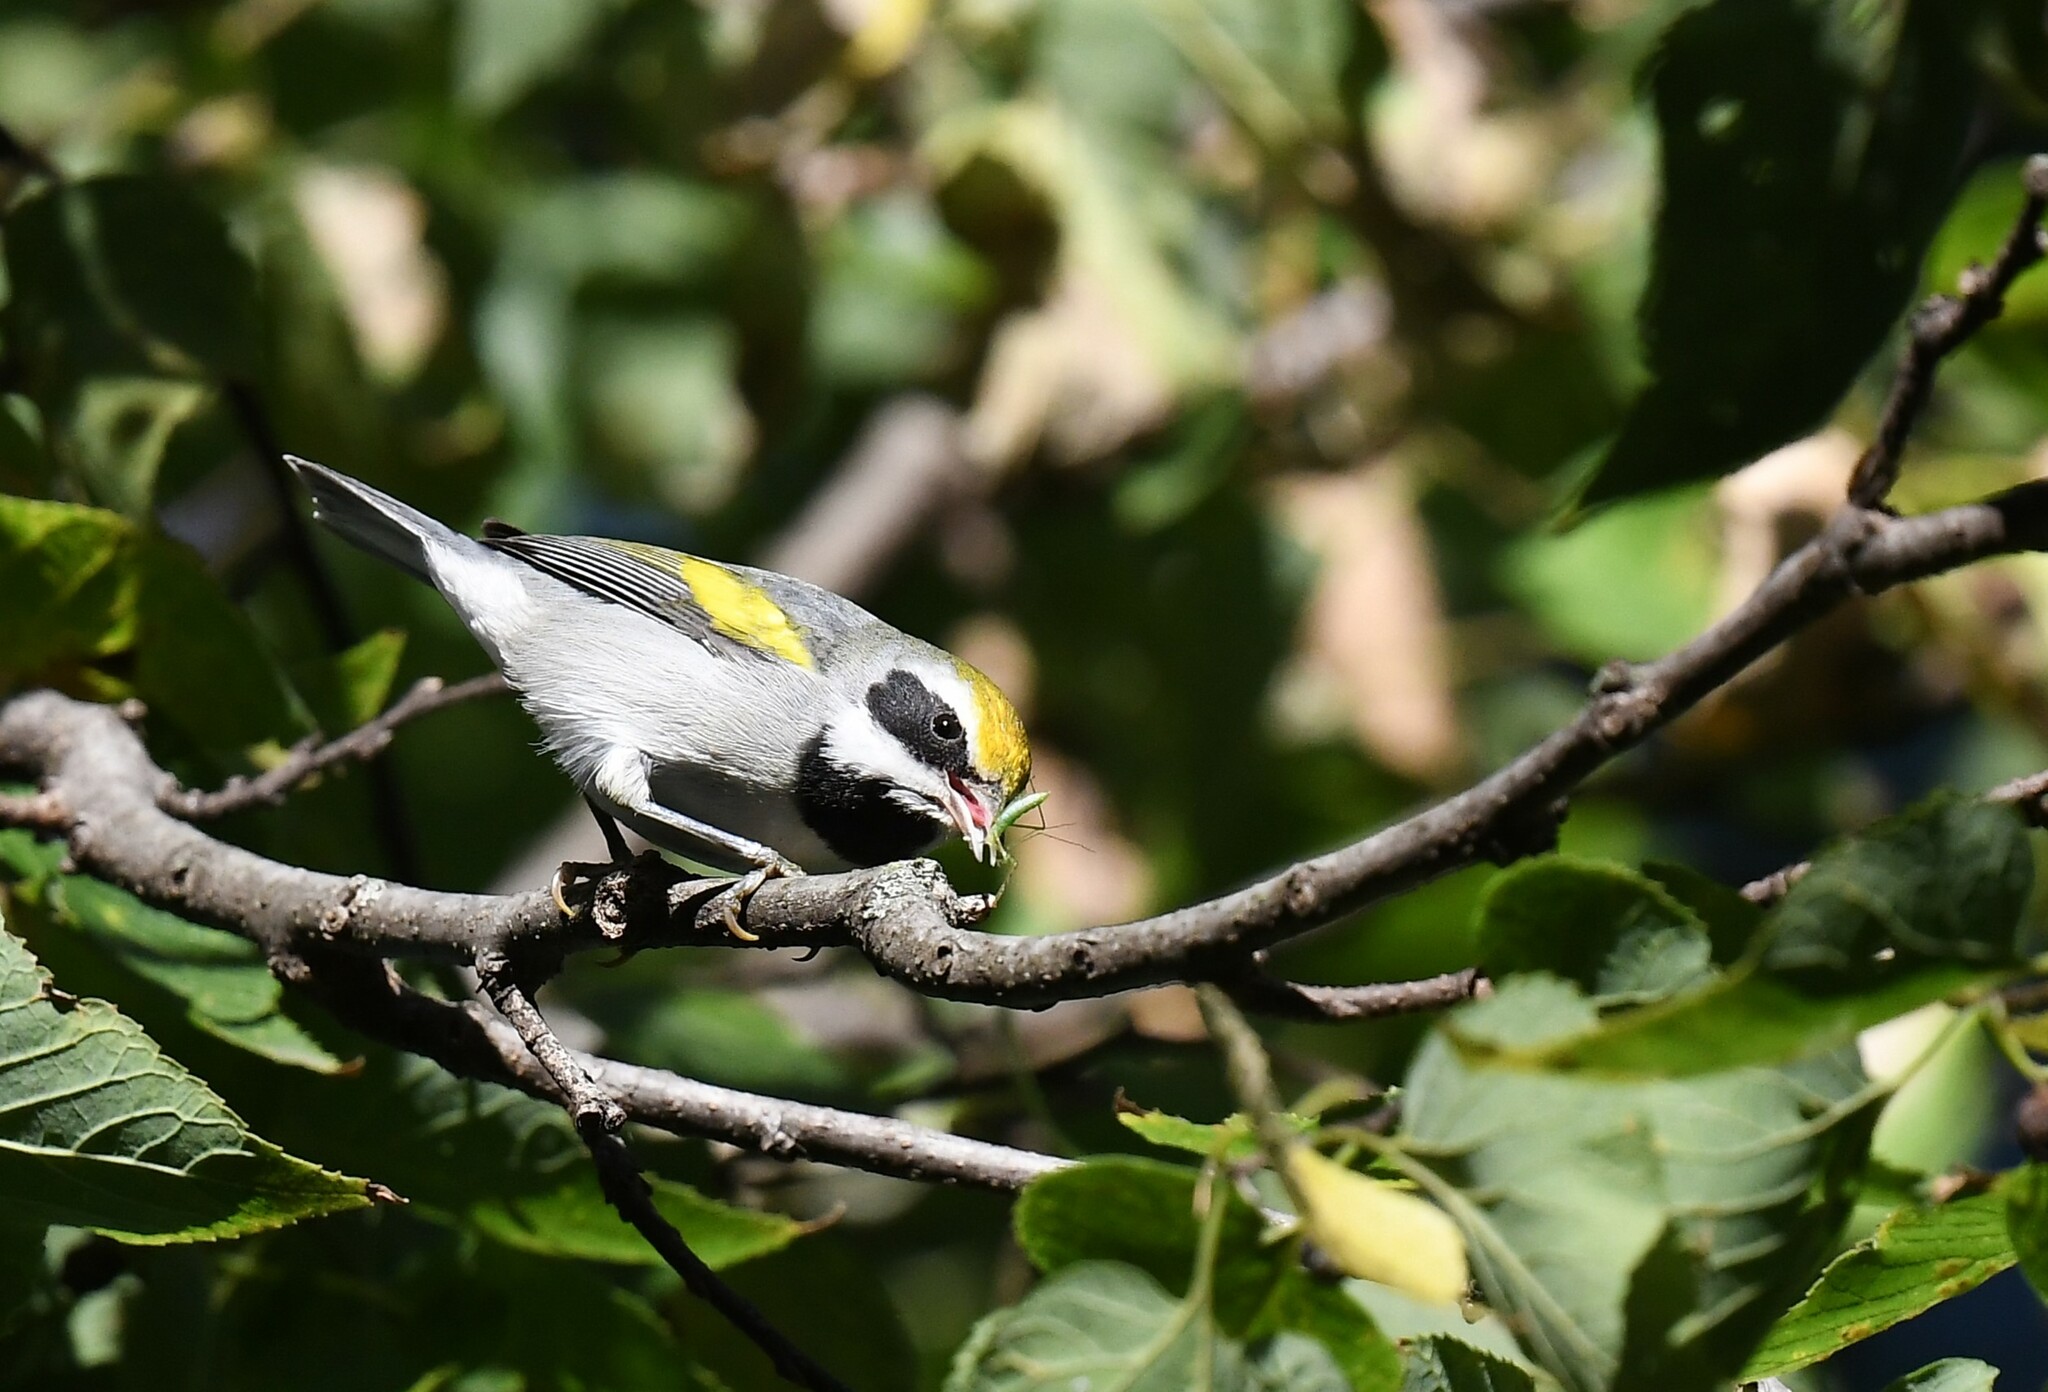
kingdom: Animalia
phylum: Chordata
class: Aves
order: Passeriformes
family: Parulidae
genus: Vermivora
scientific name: Vermivora chrysoptera
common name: Golden-winged warbler
